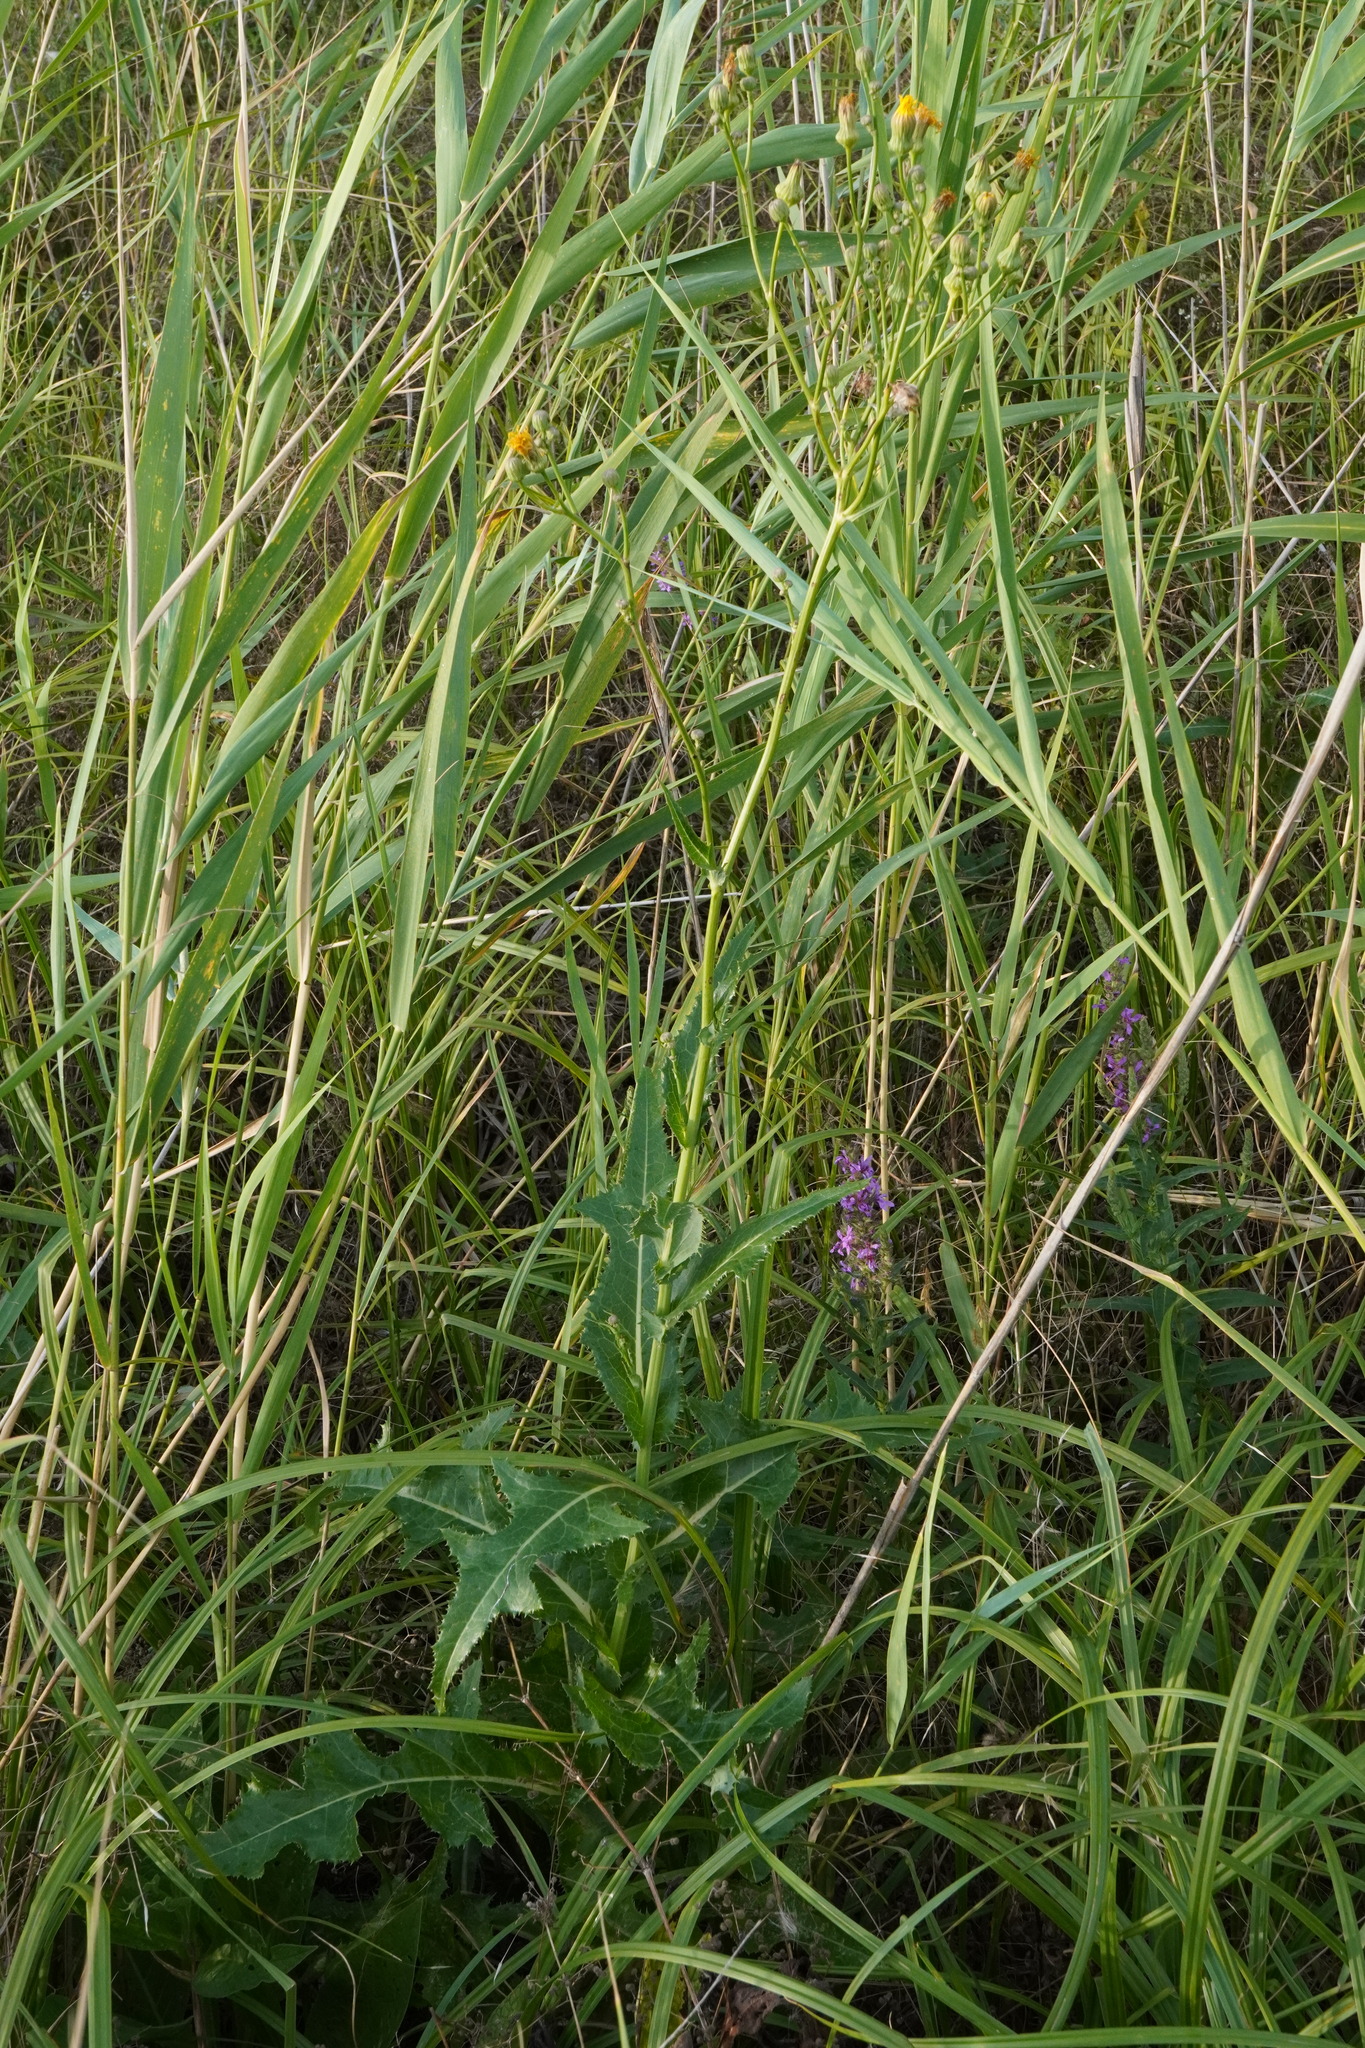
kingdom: Plantae
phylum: Tracheophyta
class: Magnoliopsida
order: Asterales
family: Asteraceae
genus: Sonchus
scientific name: Sonchus arvensis
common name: Perennial sow-thistle
